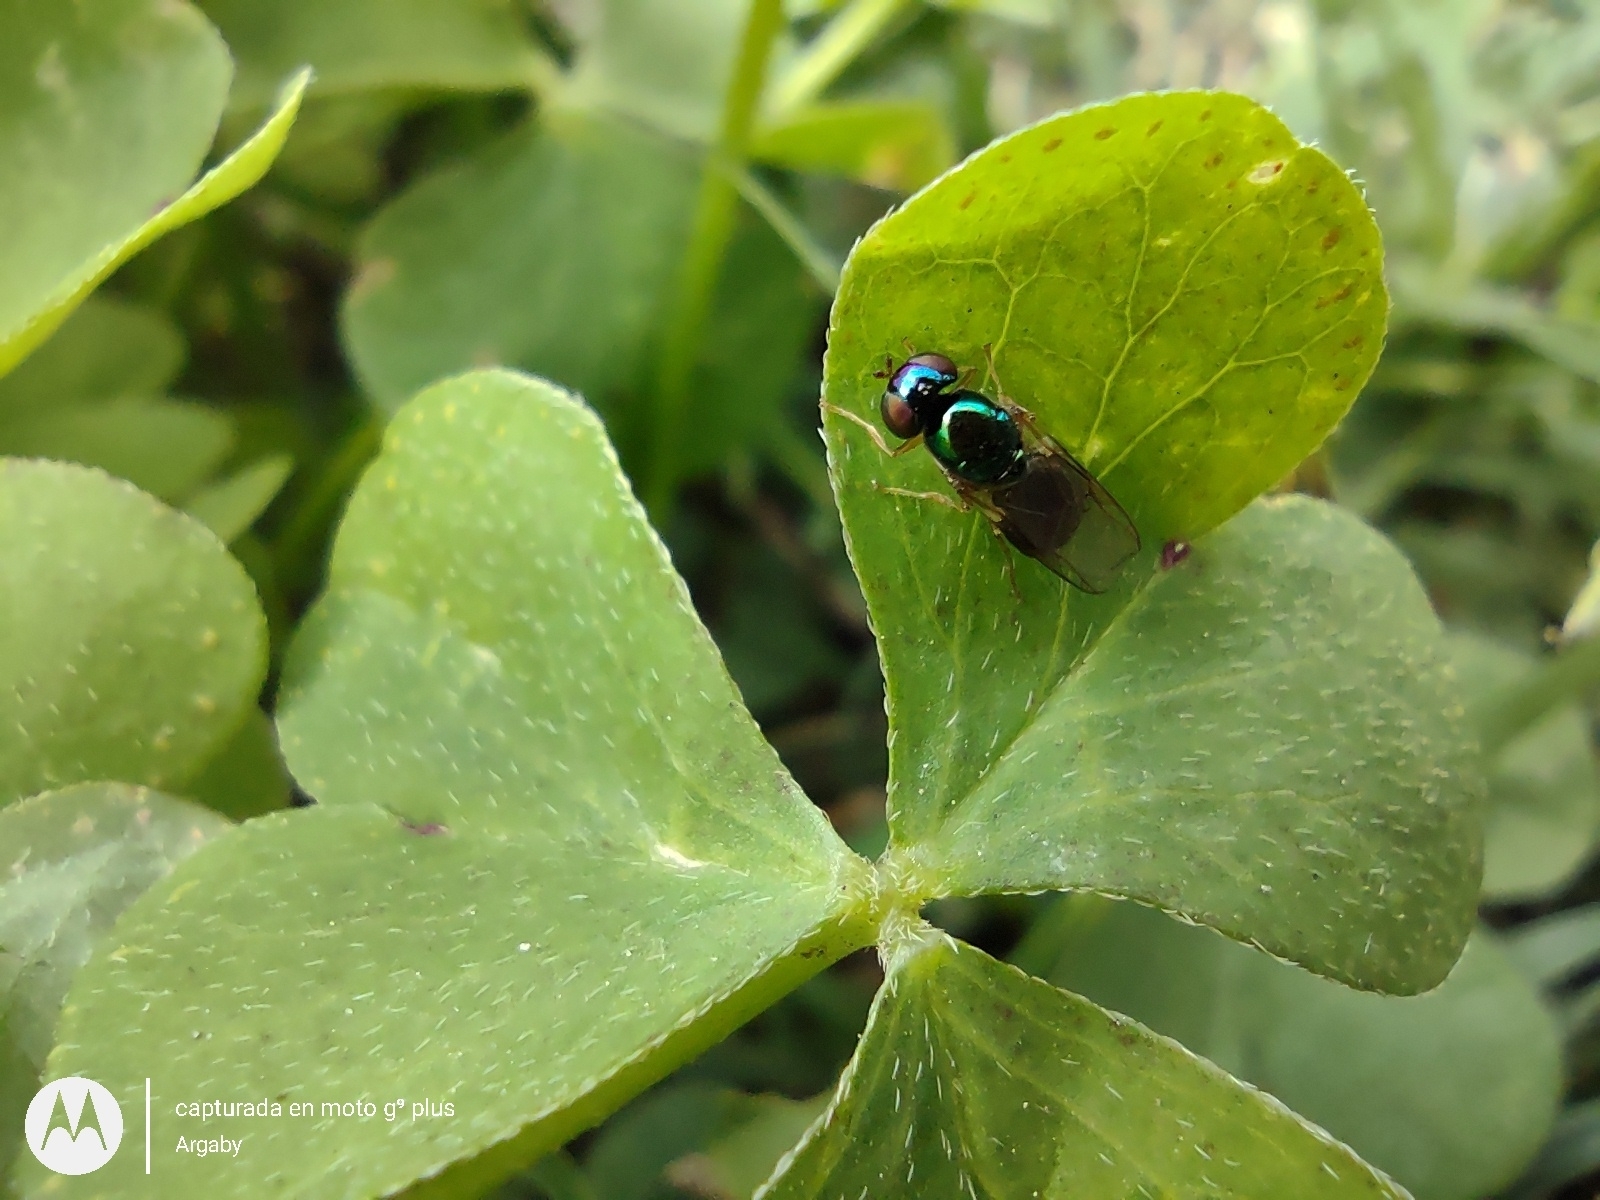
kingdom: Animalia
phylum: Arthropoda
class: Insecta
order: Diptera
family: Stratiomyidae
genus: Microchrysa
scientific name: Microchrysa bicolor
